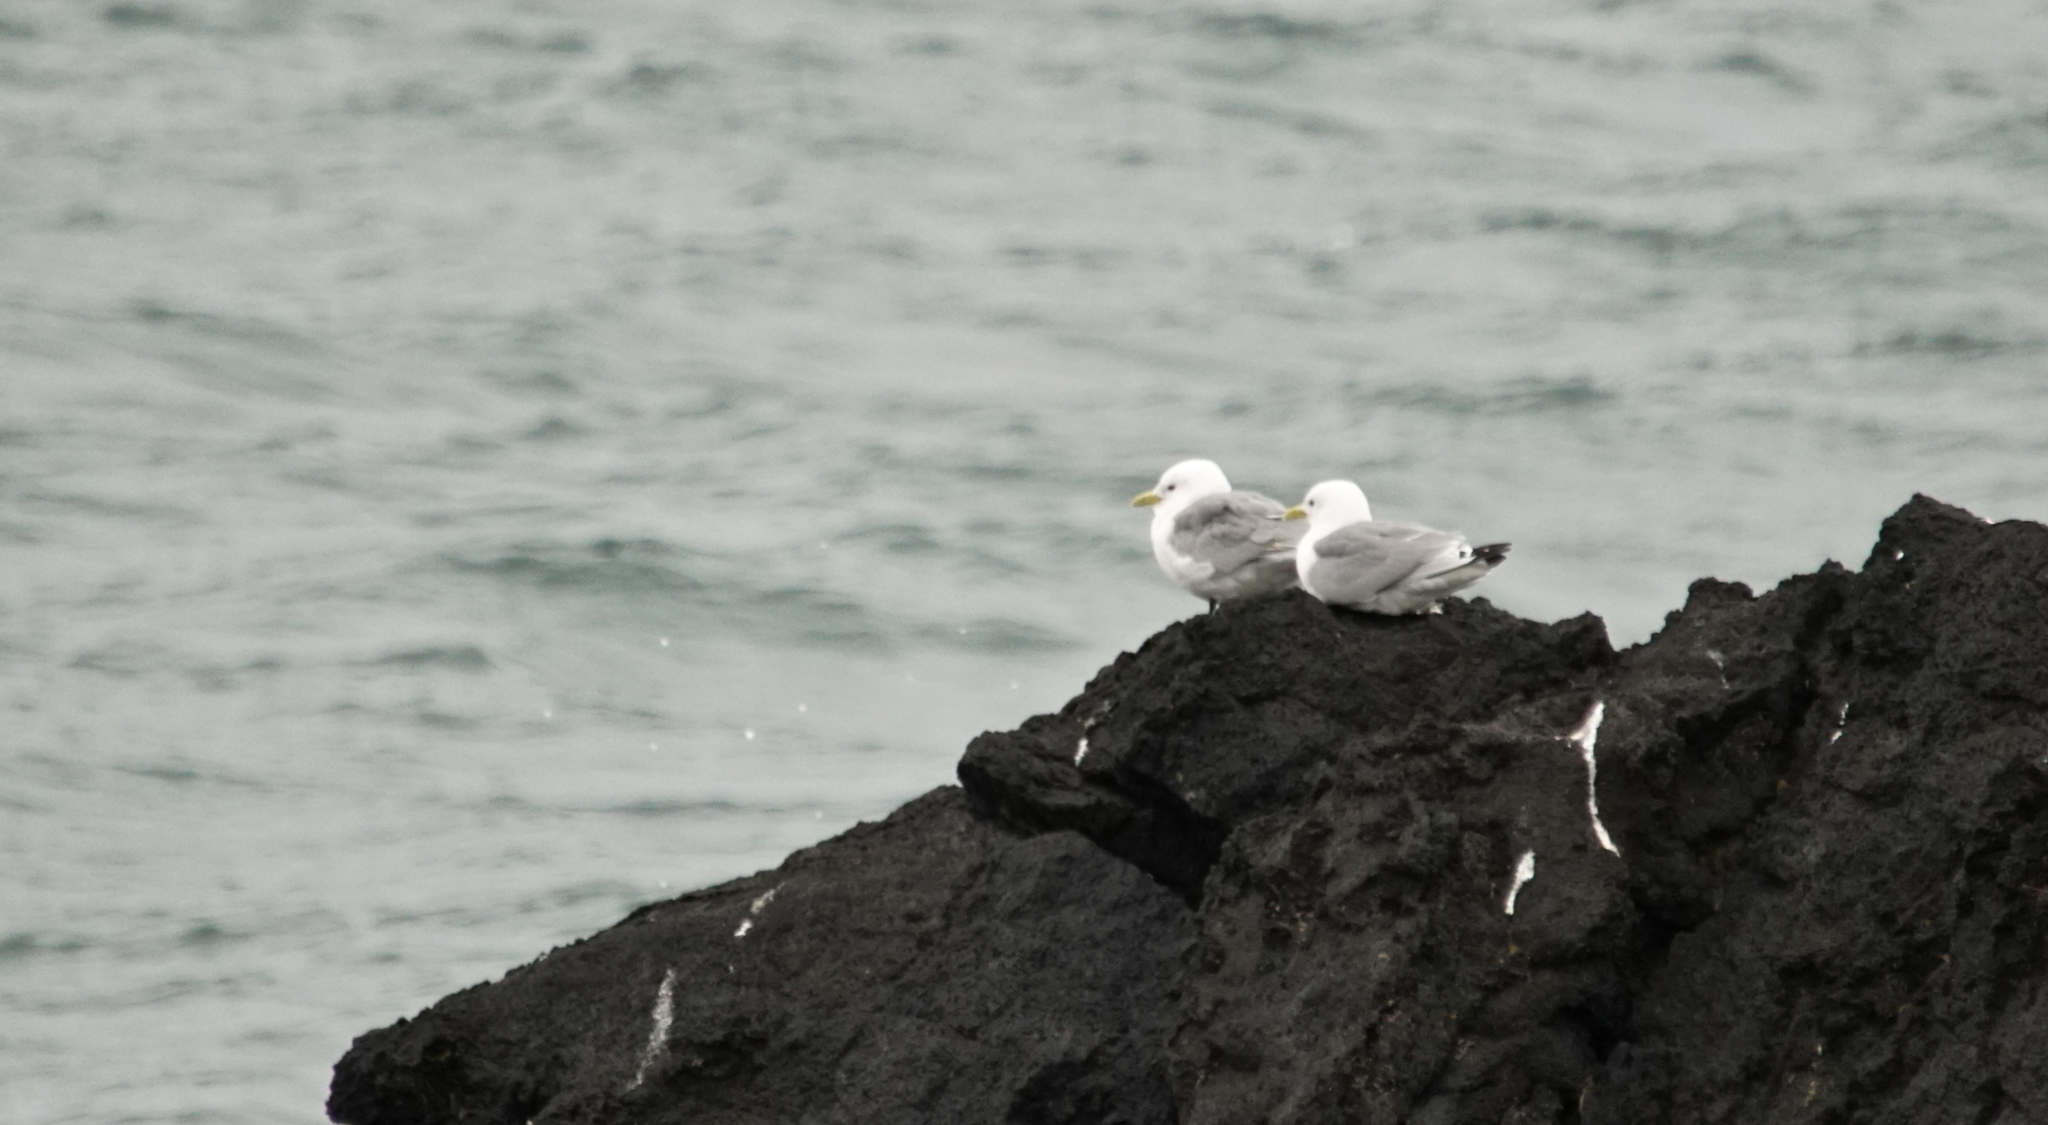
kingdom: Animalia
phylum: Chordata
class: Aves
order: Charadriiformes
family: Laridae
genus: Rissa
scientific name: Rissa tridactyla
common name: Black-legged kittiwake
